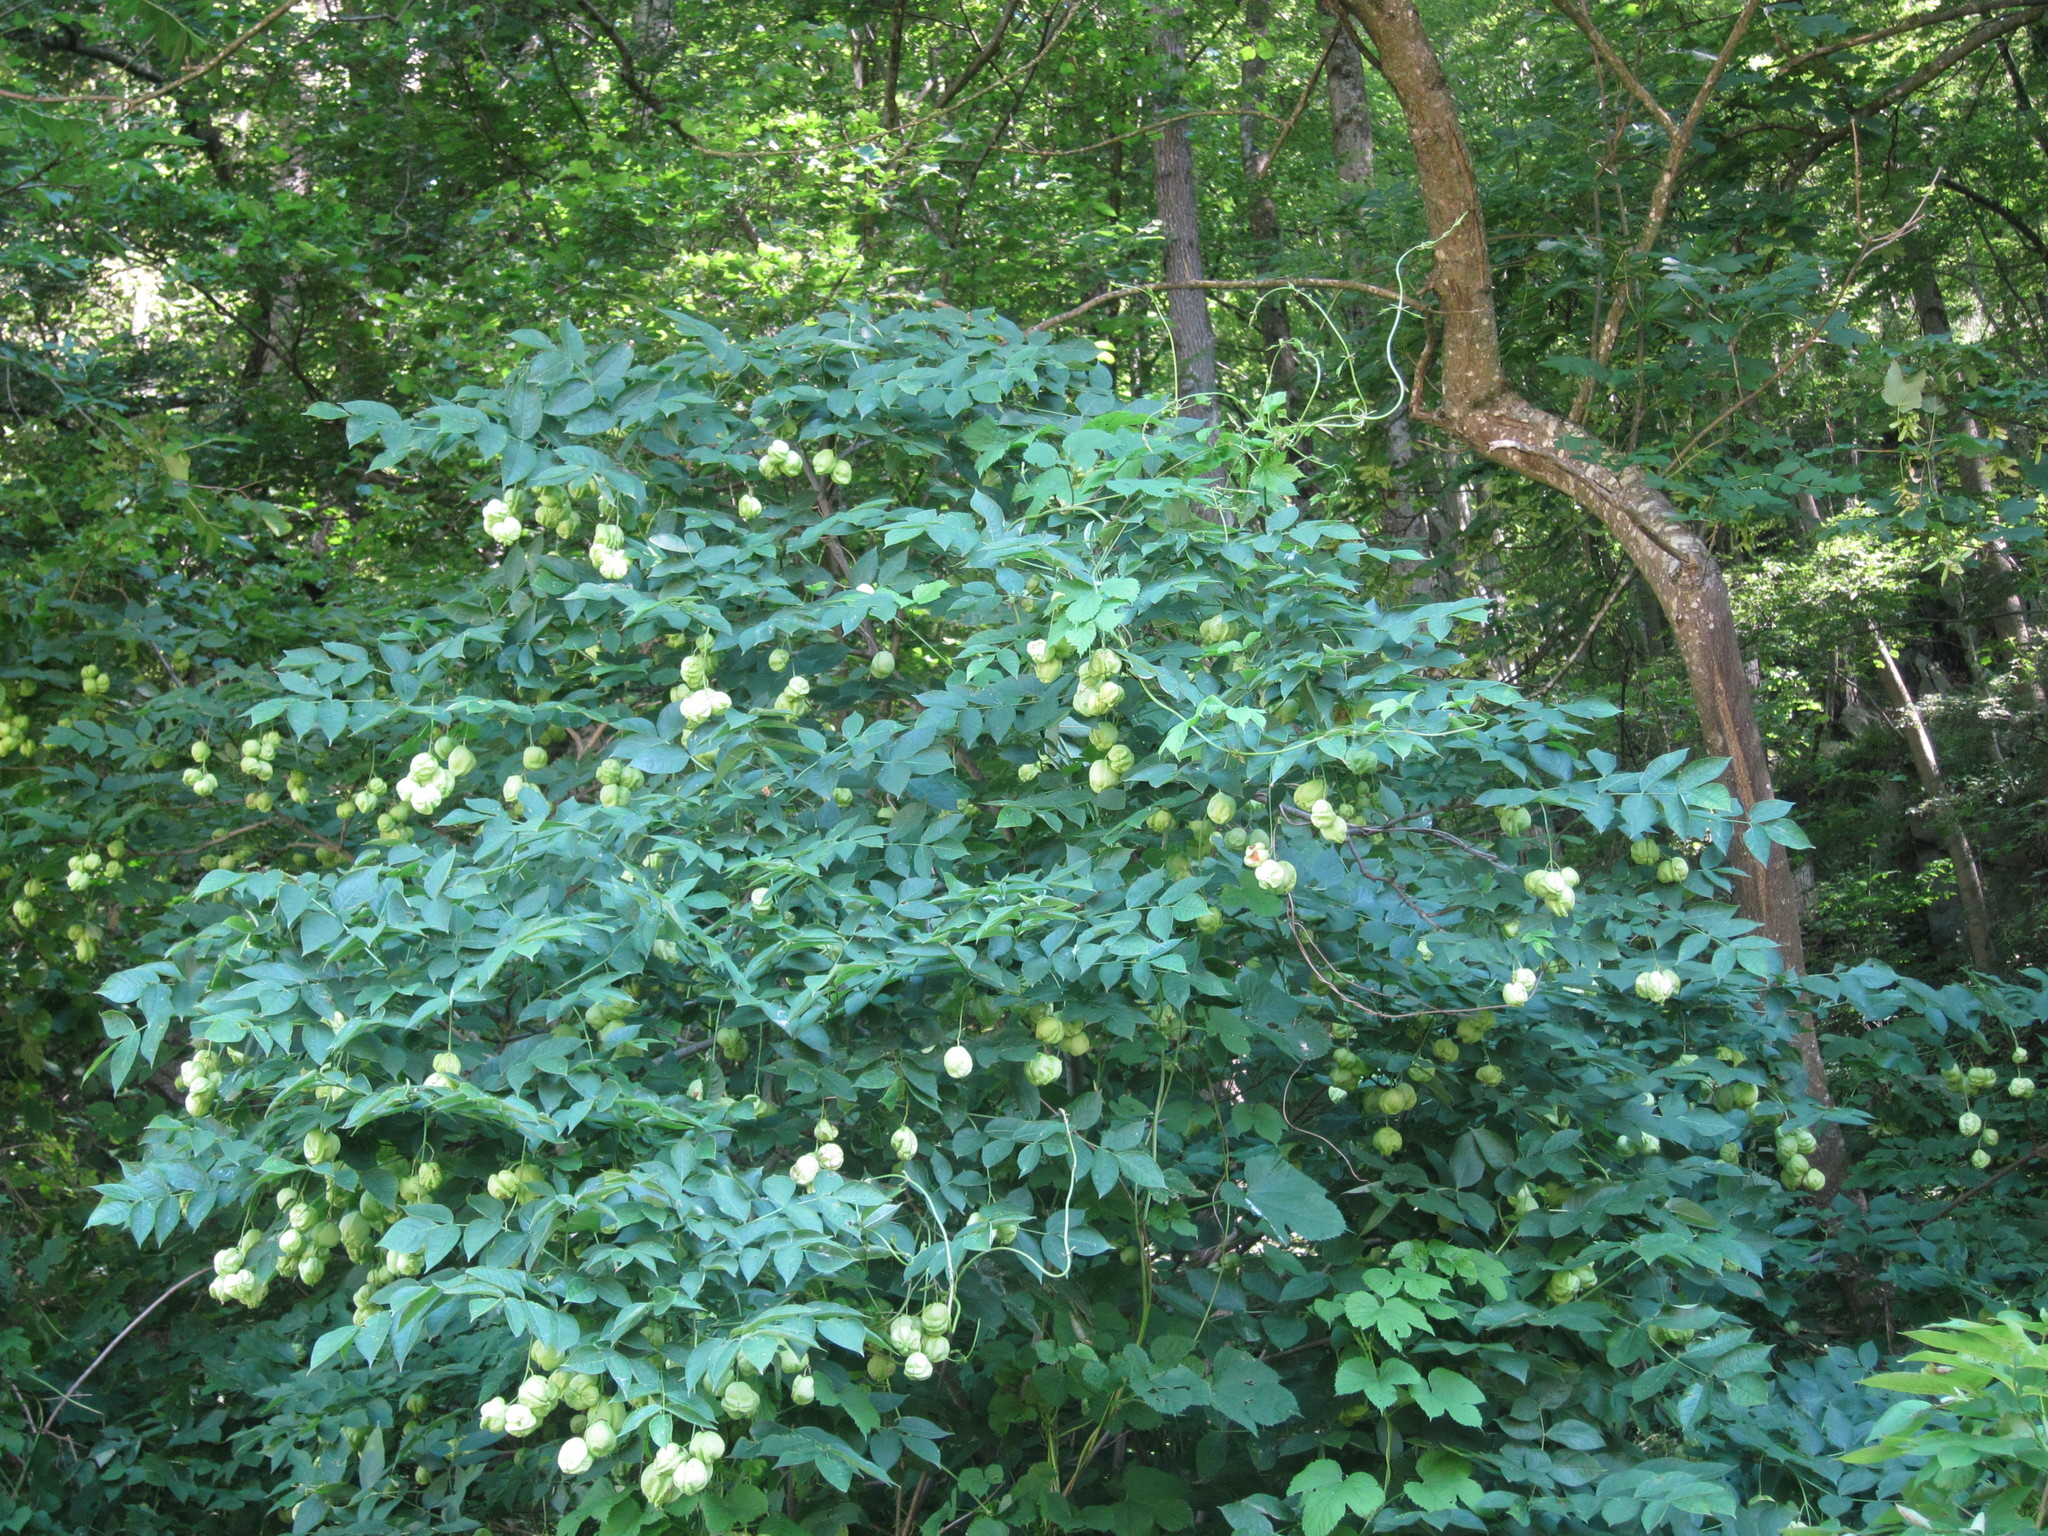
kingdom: Plantae
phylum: Tracheophyta
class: Magnoliopsida
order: Crossosomatales
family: Staphyleaceae
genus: Staphylea
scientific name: Staphylea pinnata
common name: Bladdernut
